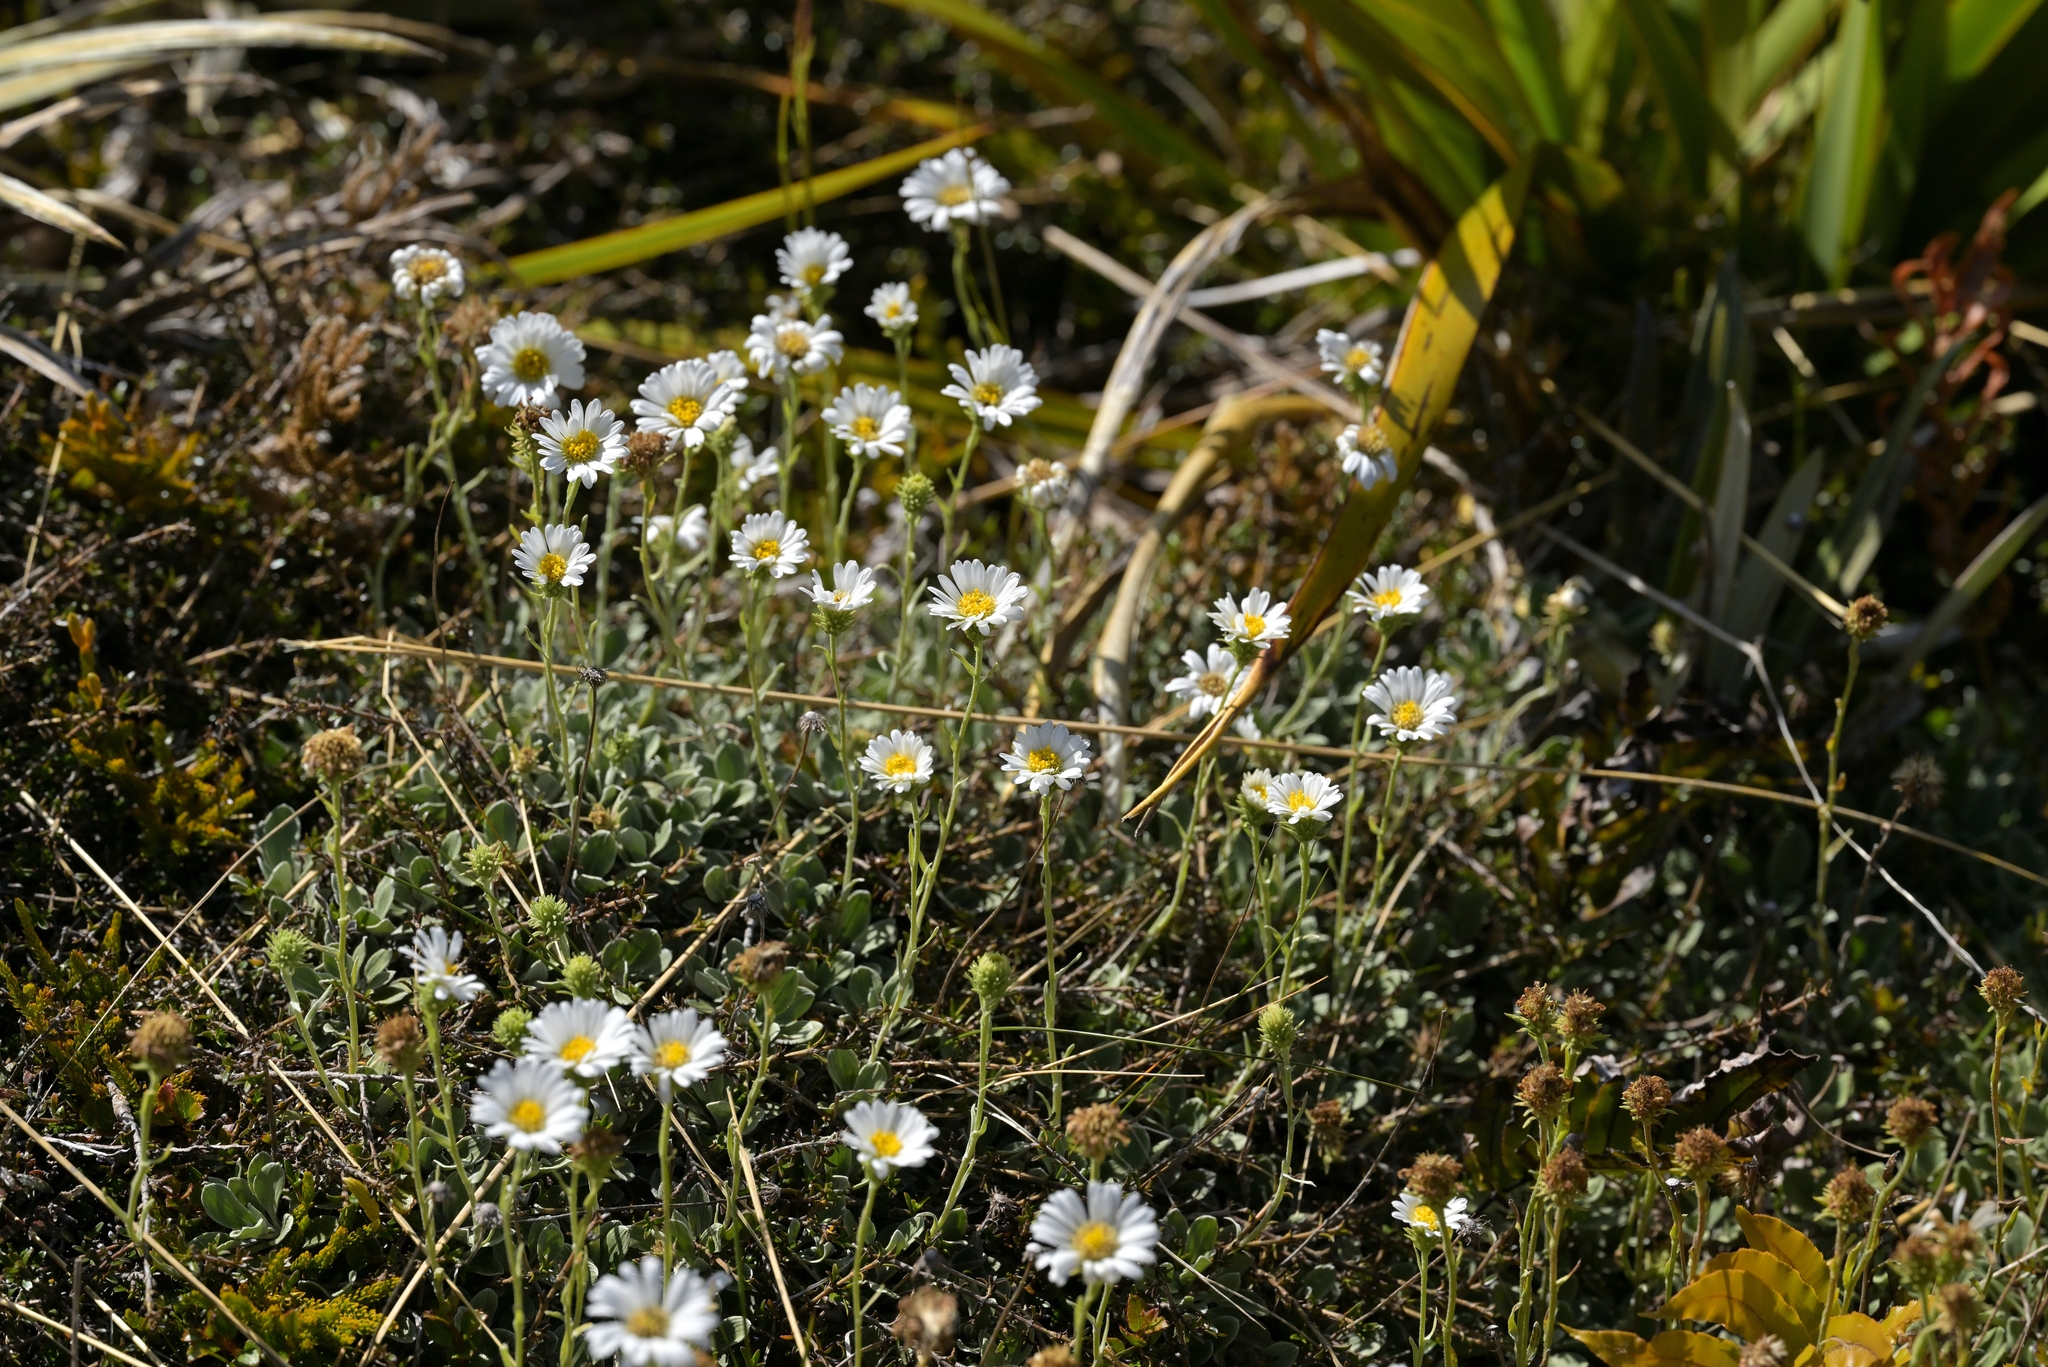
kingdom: Plantae
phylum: Tracheophyta
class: Magnoliopsida
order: Asterales
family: Asteraceae
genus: Celmisia
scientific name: Celmisia discolor
